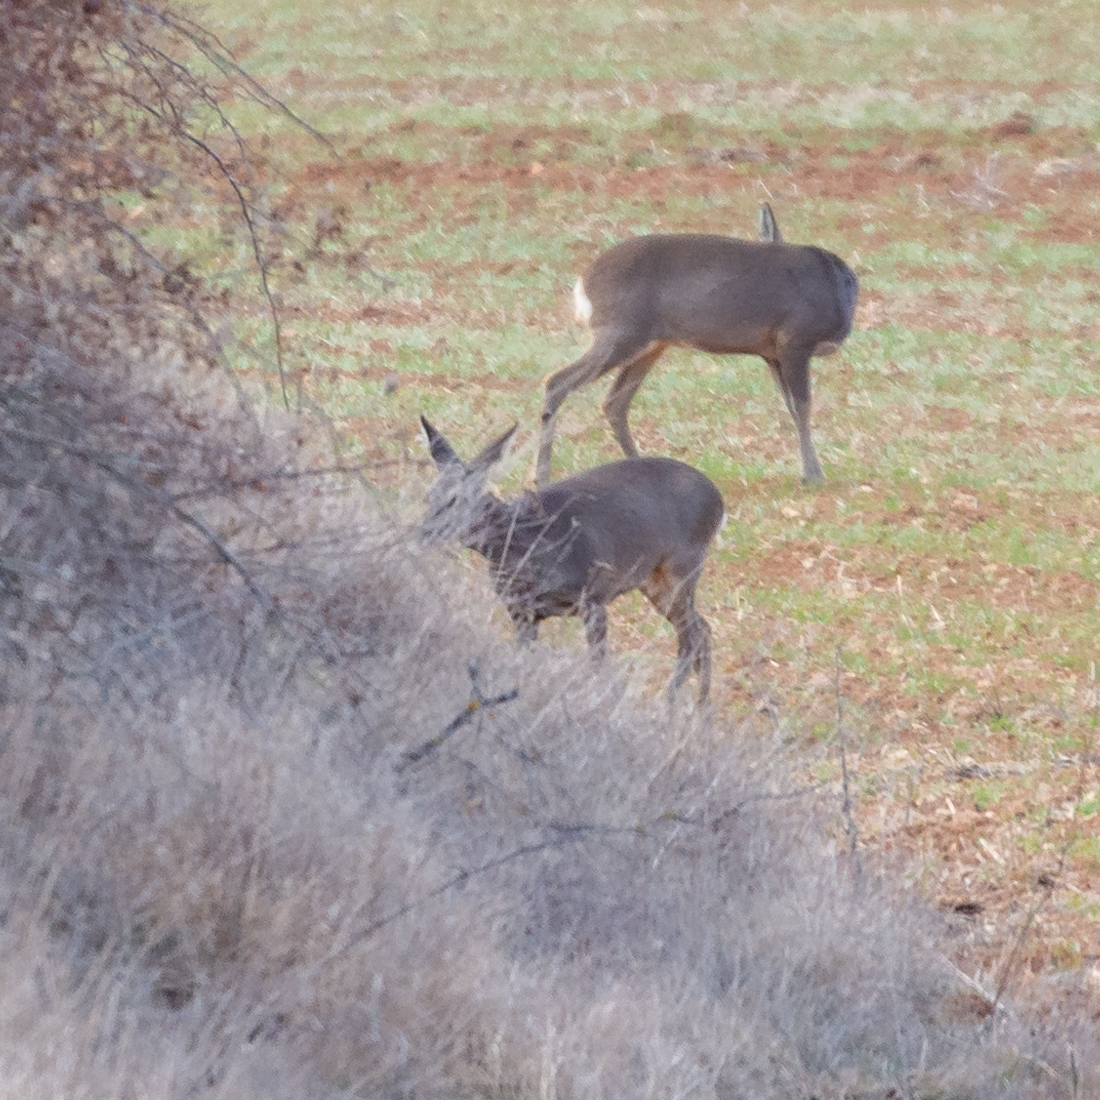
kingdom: Animalia
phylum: Chordata
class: Mammalia
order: Artiodactyla
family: Cervidae
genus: Capreolus
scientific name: Capreolus capreolus
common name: Western roe deer
